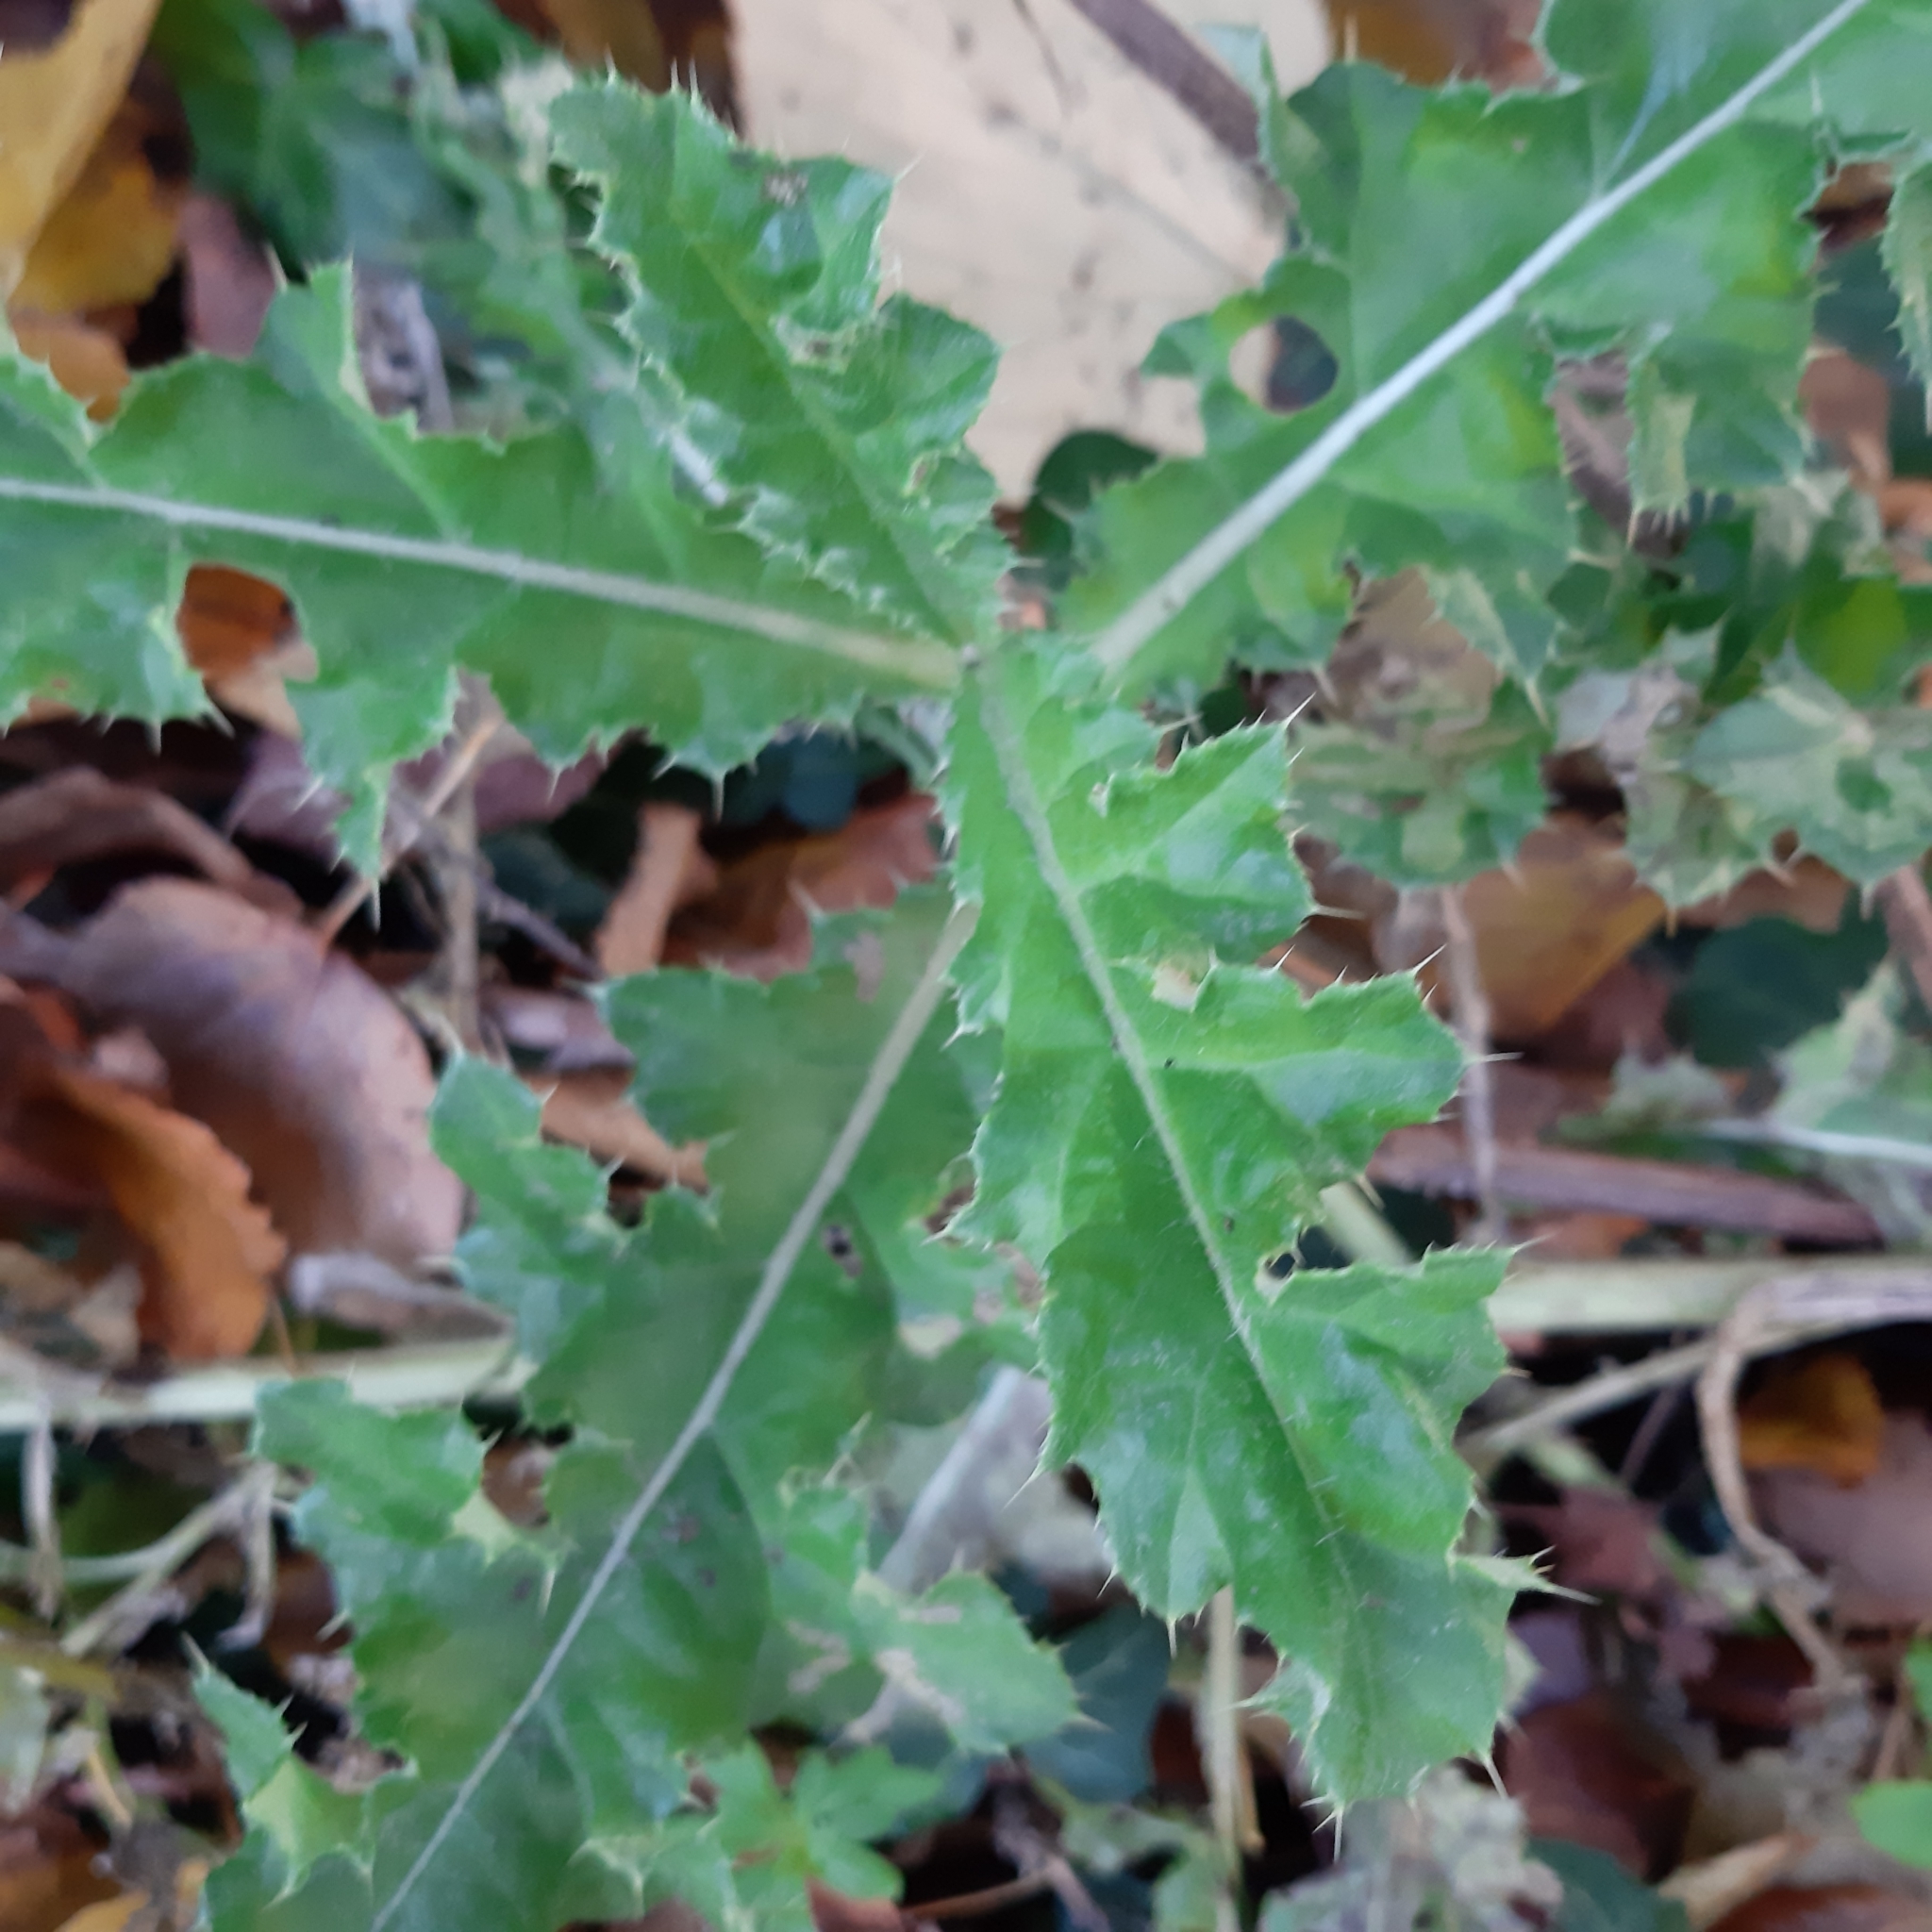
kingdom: Plantae
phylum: Tracheophyta
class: Magnoliopsida
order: Asterales
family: Asteraceae
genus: Cirsium
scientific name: Cirsium arvense
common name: Creeping thistle
